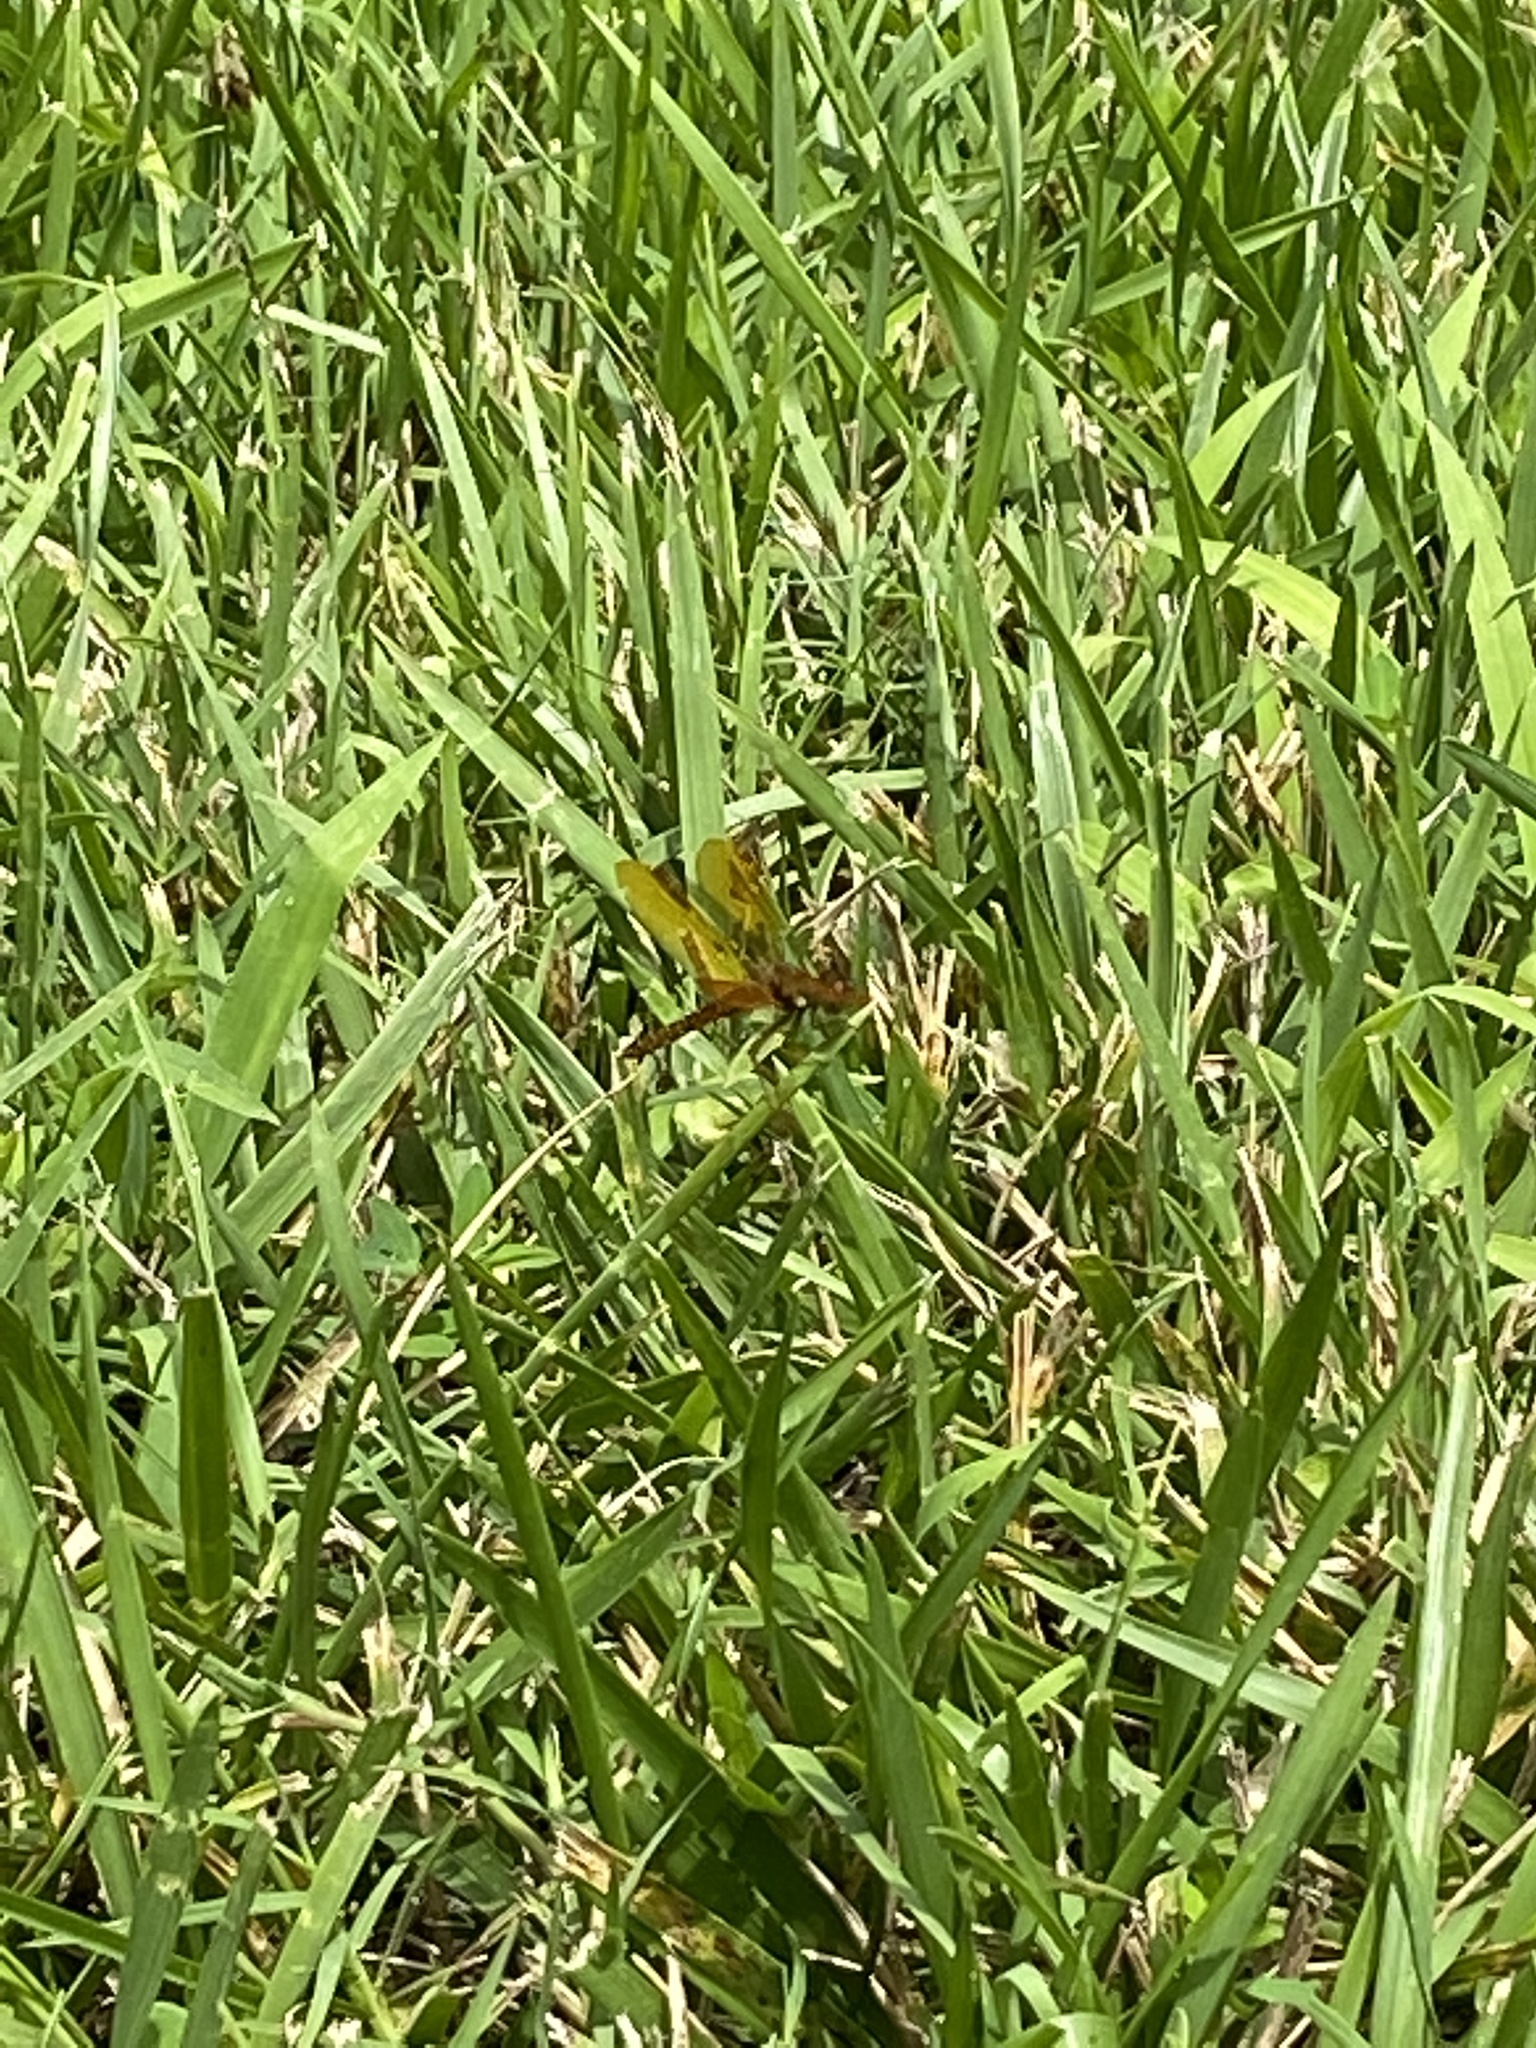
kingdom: Animalia
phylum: Arthropoda
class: Insecta
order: Odonata
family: Libellulidae
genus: Perithemis
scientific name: Perithemis tenera
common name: Eastern amberwing
